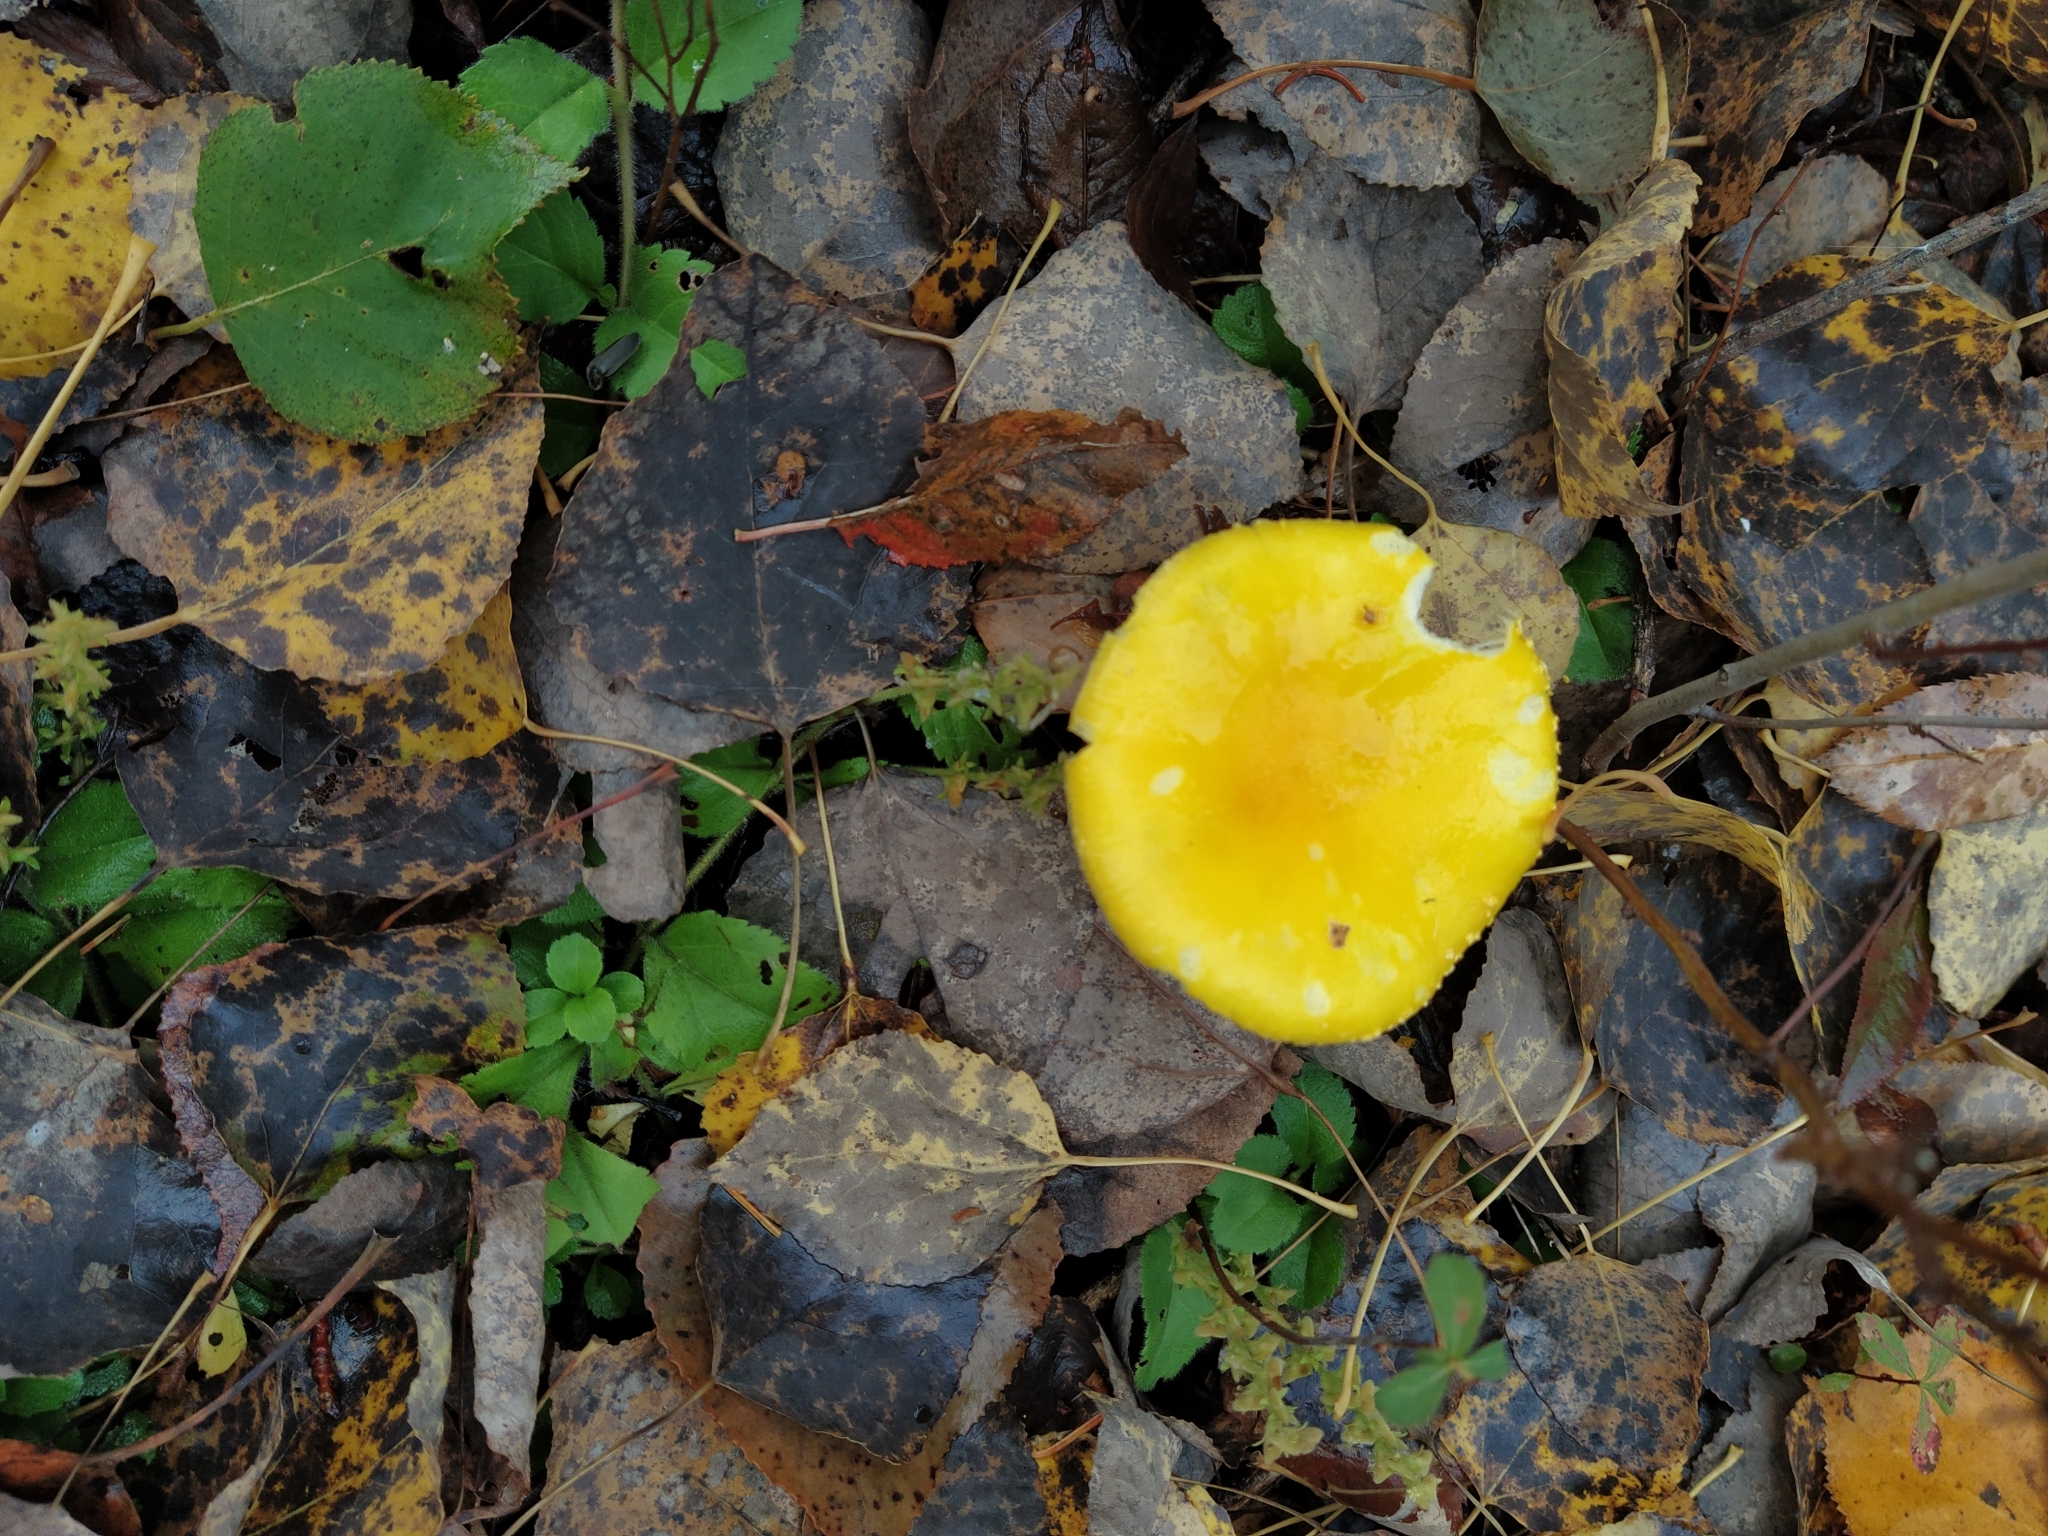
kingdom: Fungi
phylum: Basidiomycota
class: Agaricomycetes
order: Agaricales
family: Amanitaceae
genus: Amanita
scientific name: Amanita muscaria
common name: Fly agaric
